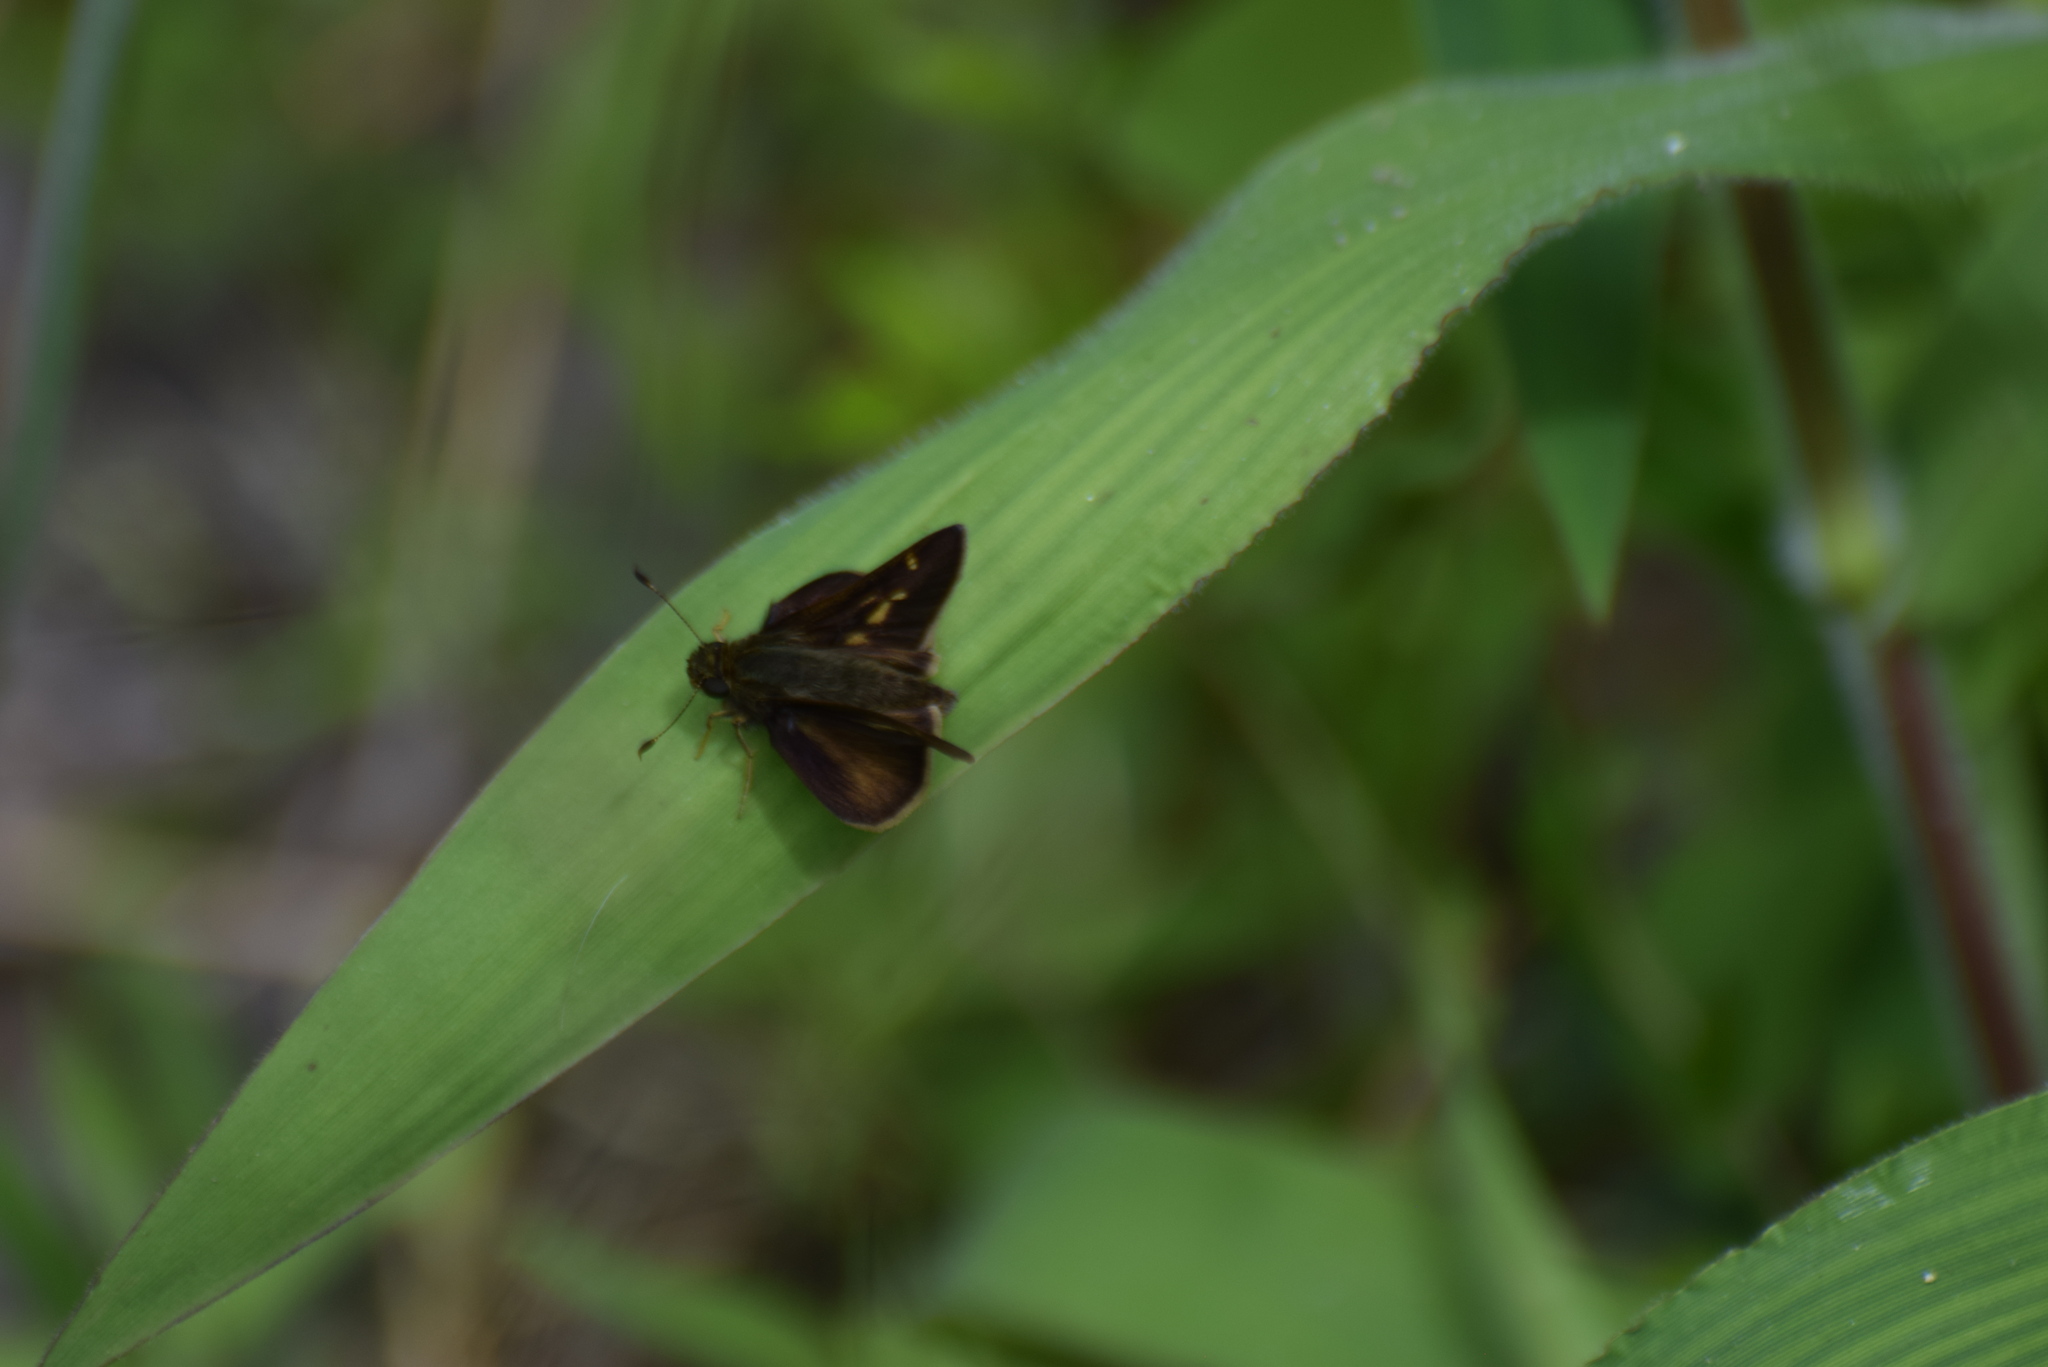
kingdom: Animalia
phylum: Arthropoda
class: Insecta
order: Lepidoptera
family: Hesperiidae
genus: Vernia
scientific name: Vernia verna
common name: Little glassywing
